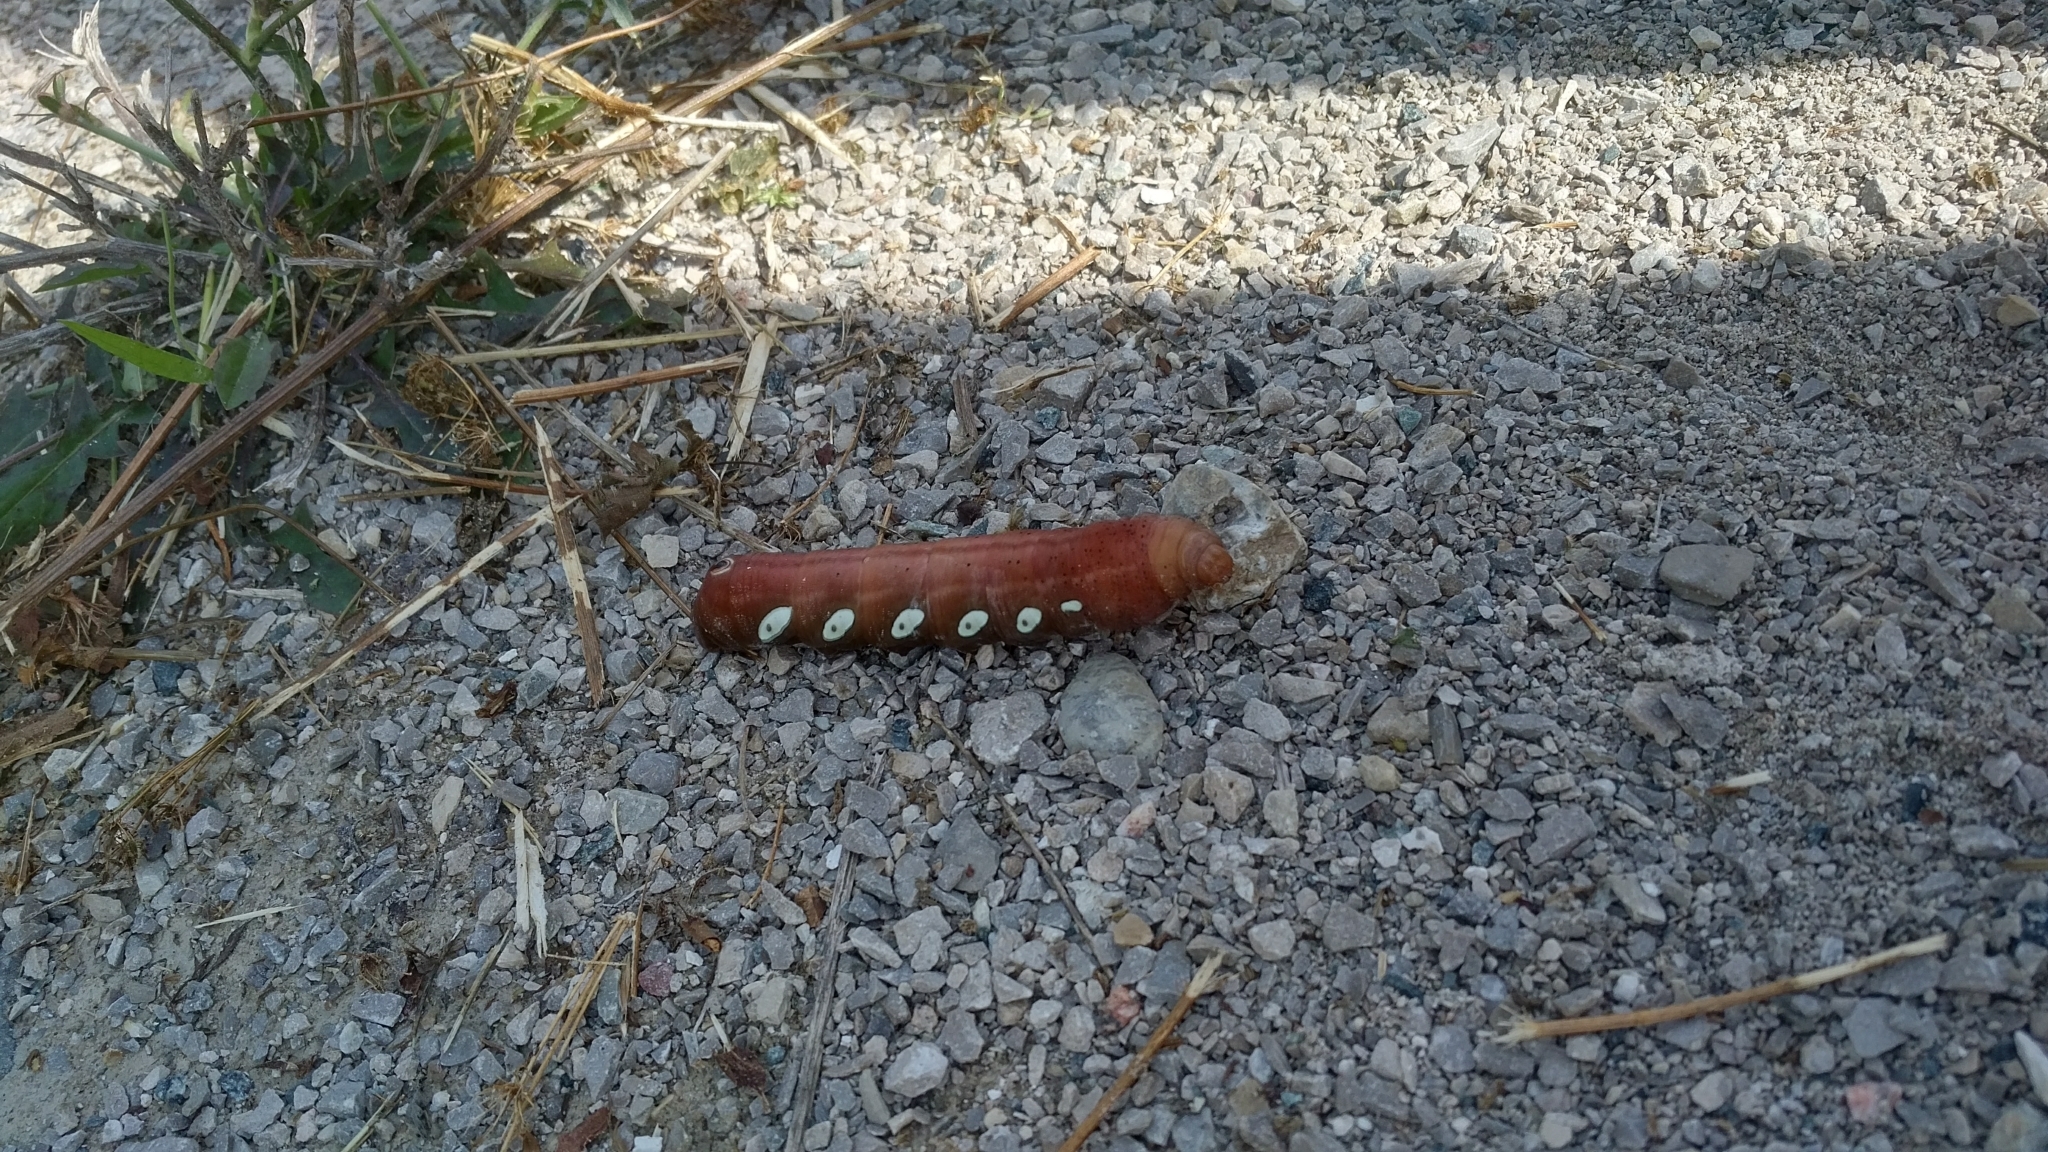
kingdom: Animalia
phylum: Arthropoda
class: Insecta
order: Lepidoptera
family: Sphingidae
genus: Eumorpha
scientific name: Eumorpha pandorus
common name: Pandora sphinx
